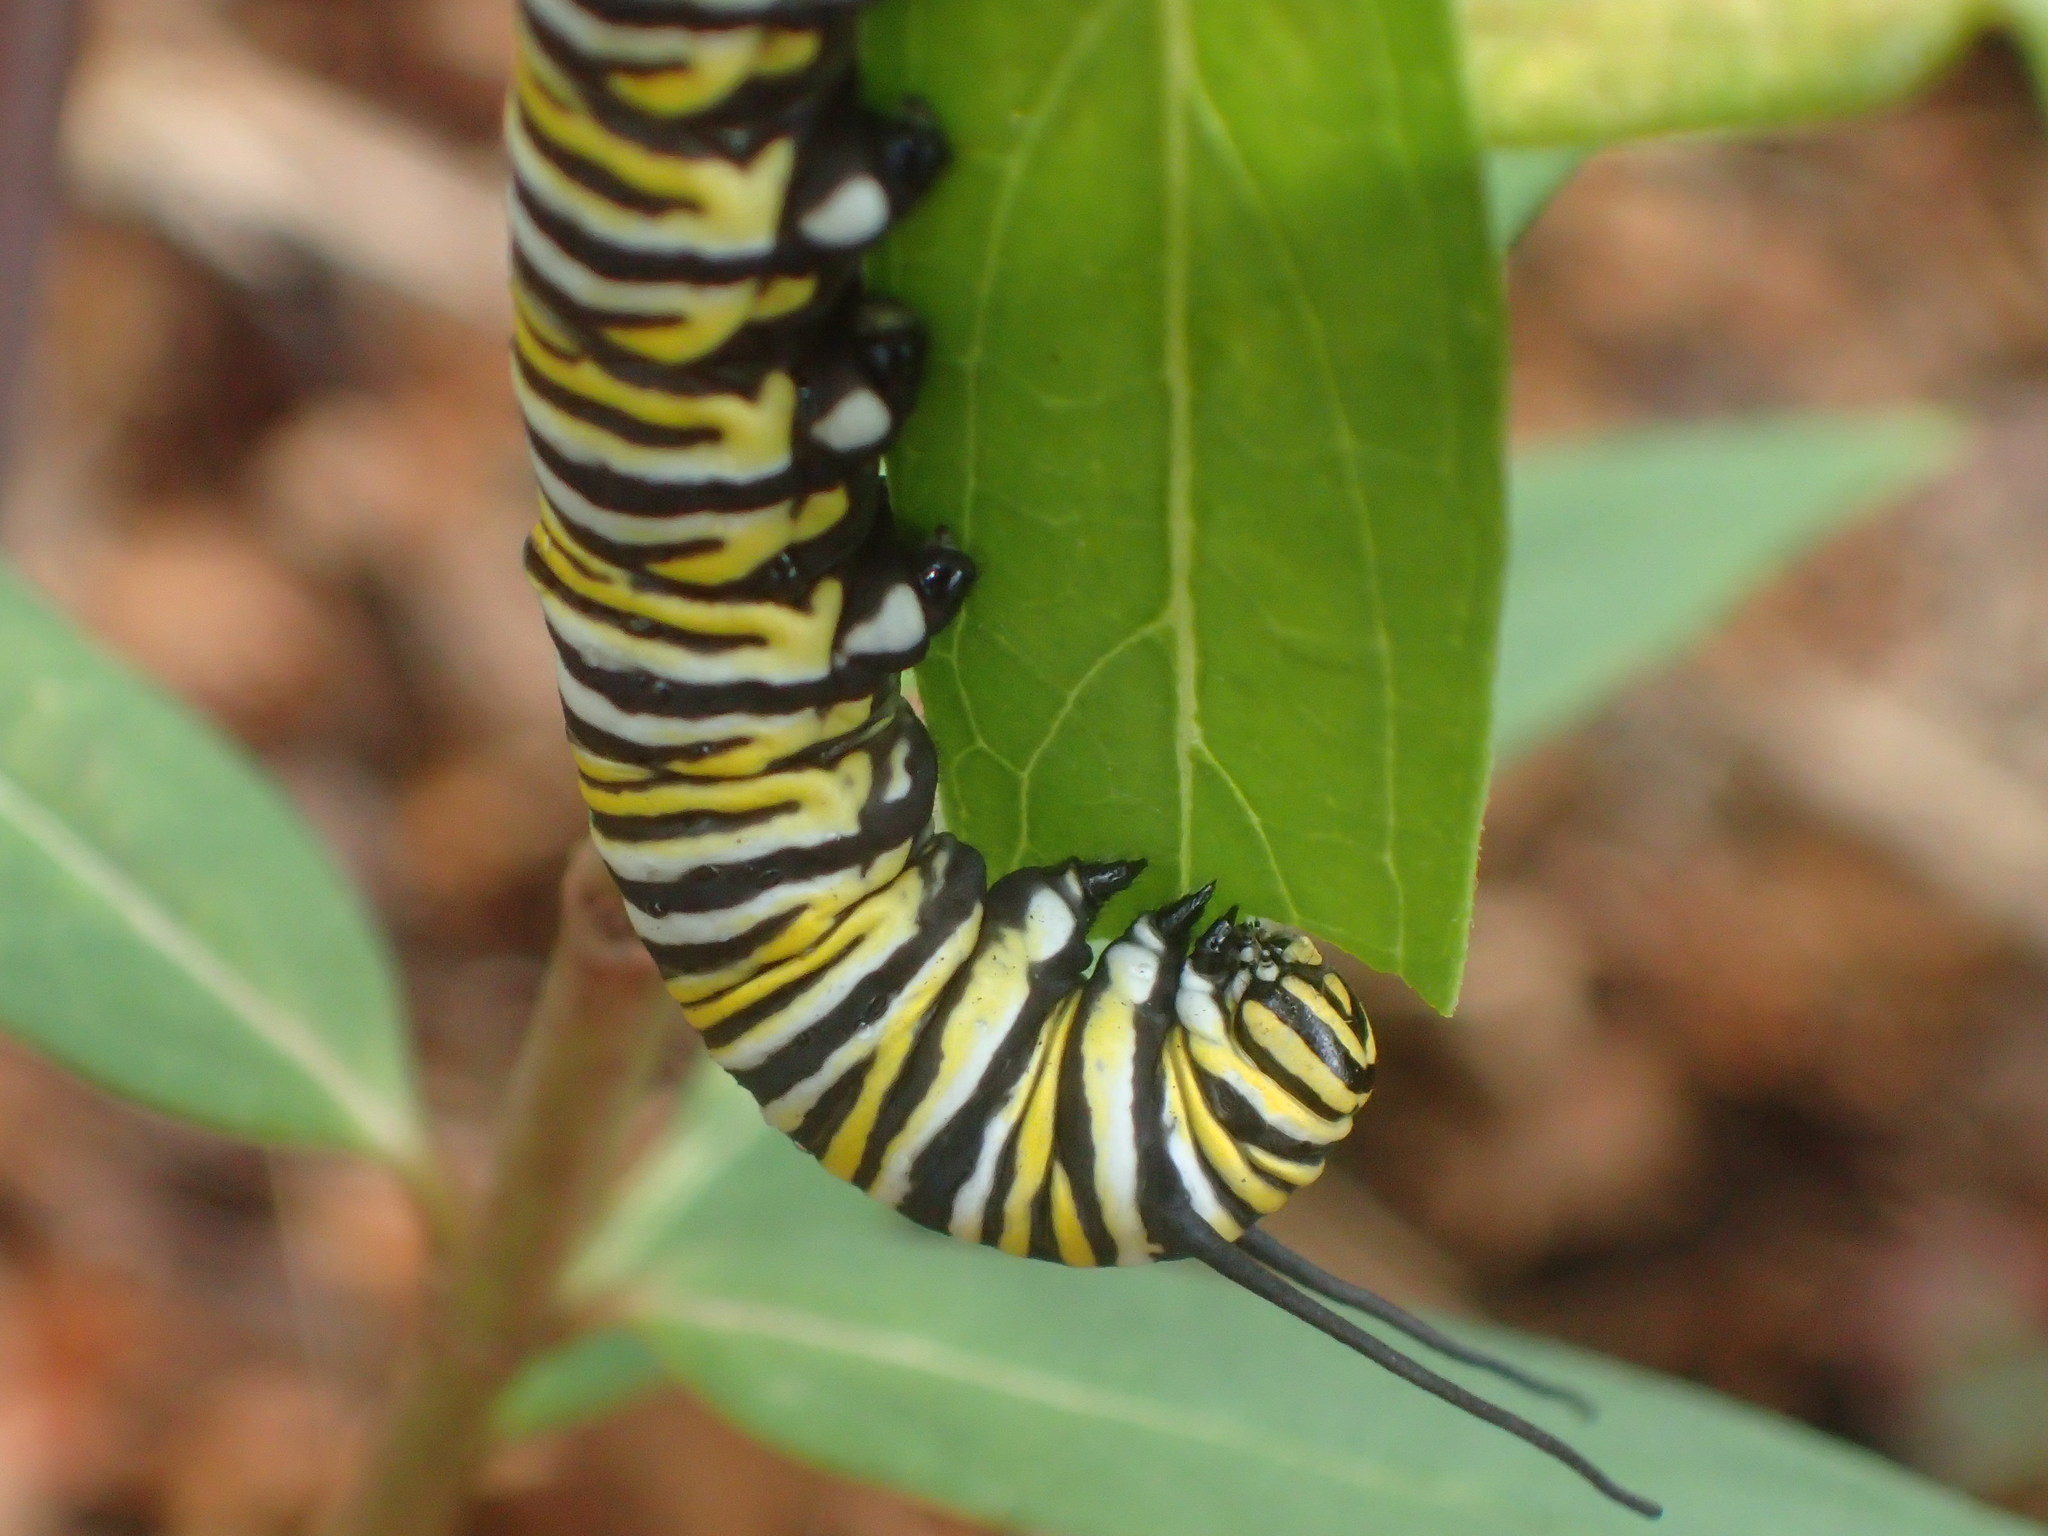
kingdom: Animalia
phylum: Arthropoda
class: Insecta
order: Lepidoptera
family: Nymphalidae
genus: Danaus
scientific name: Danaus plexippus
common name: Monarch
